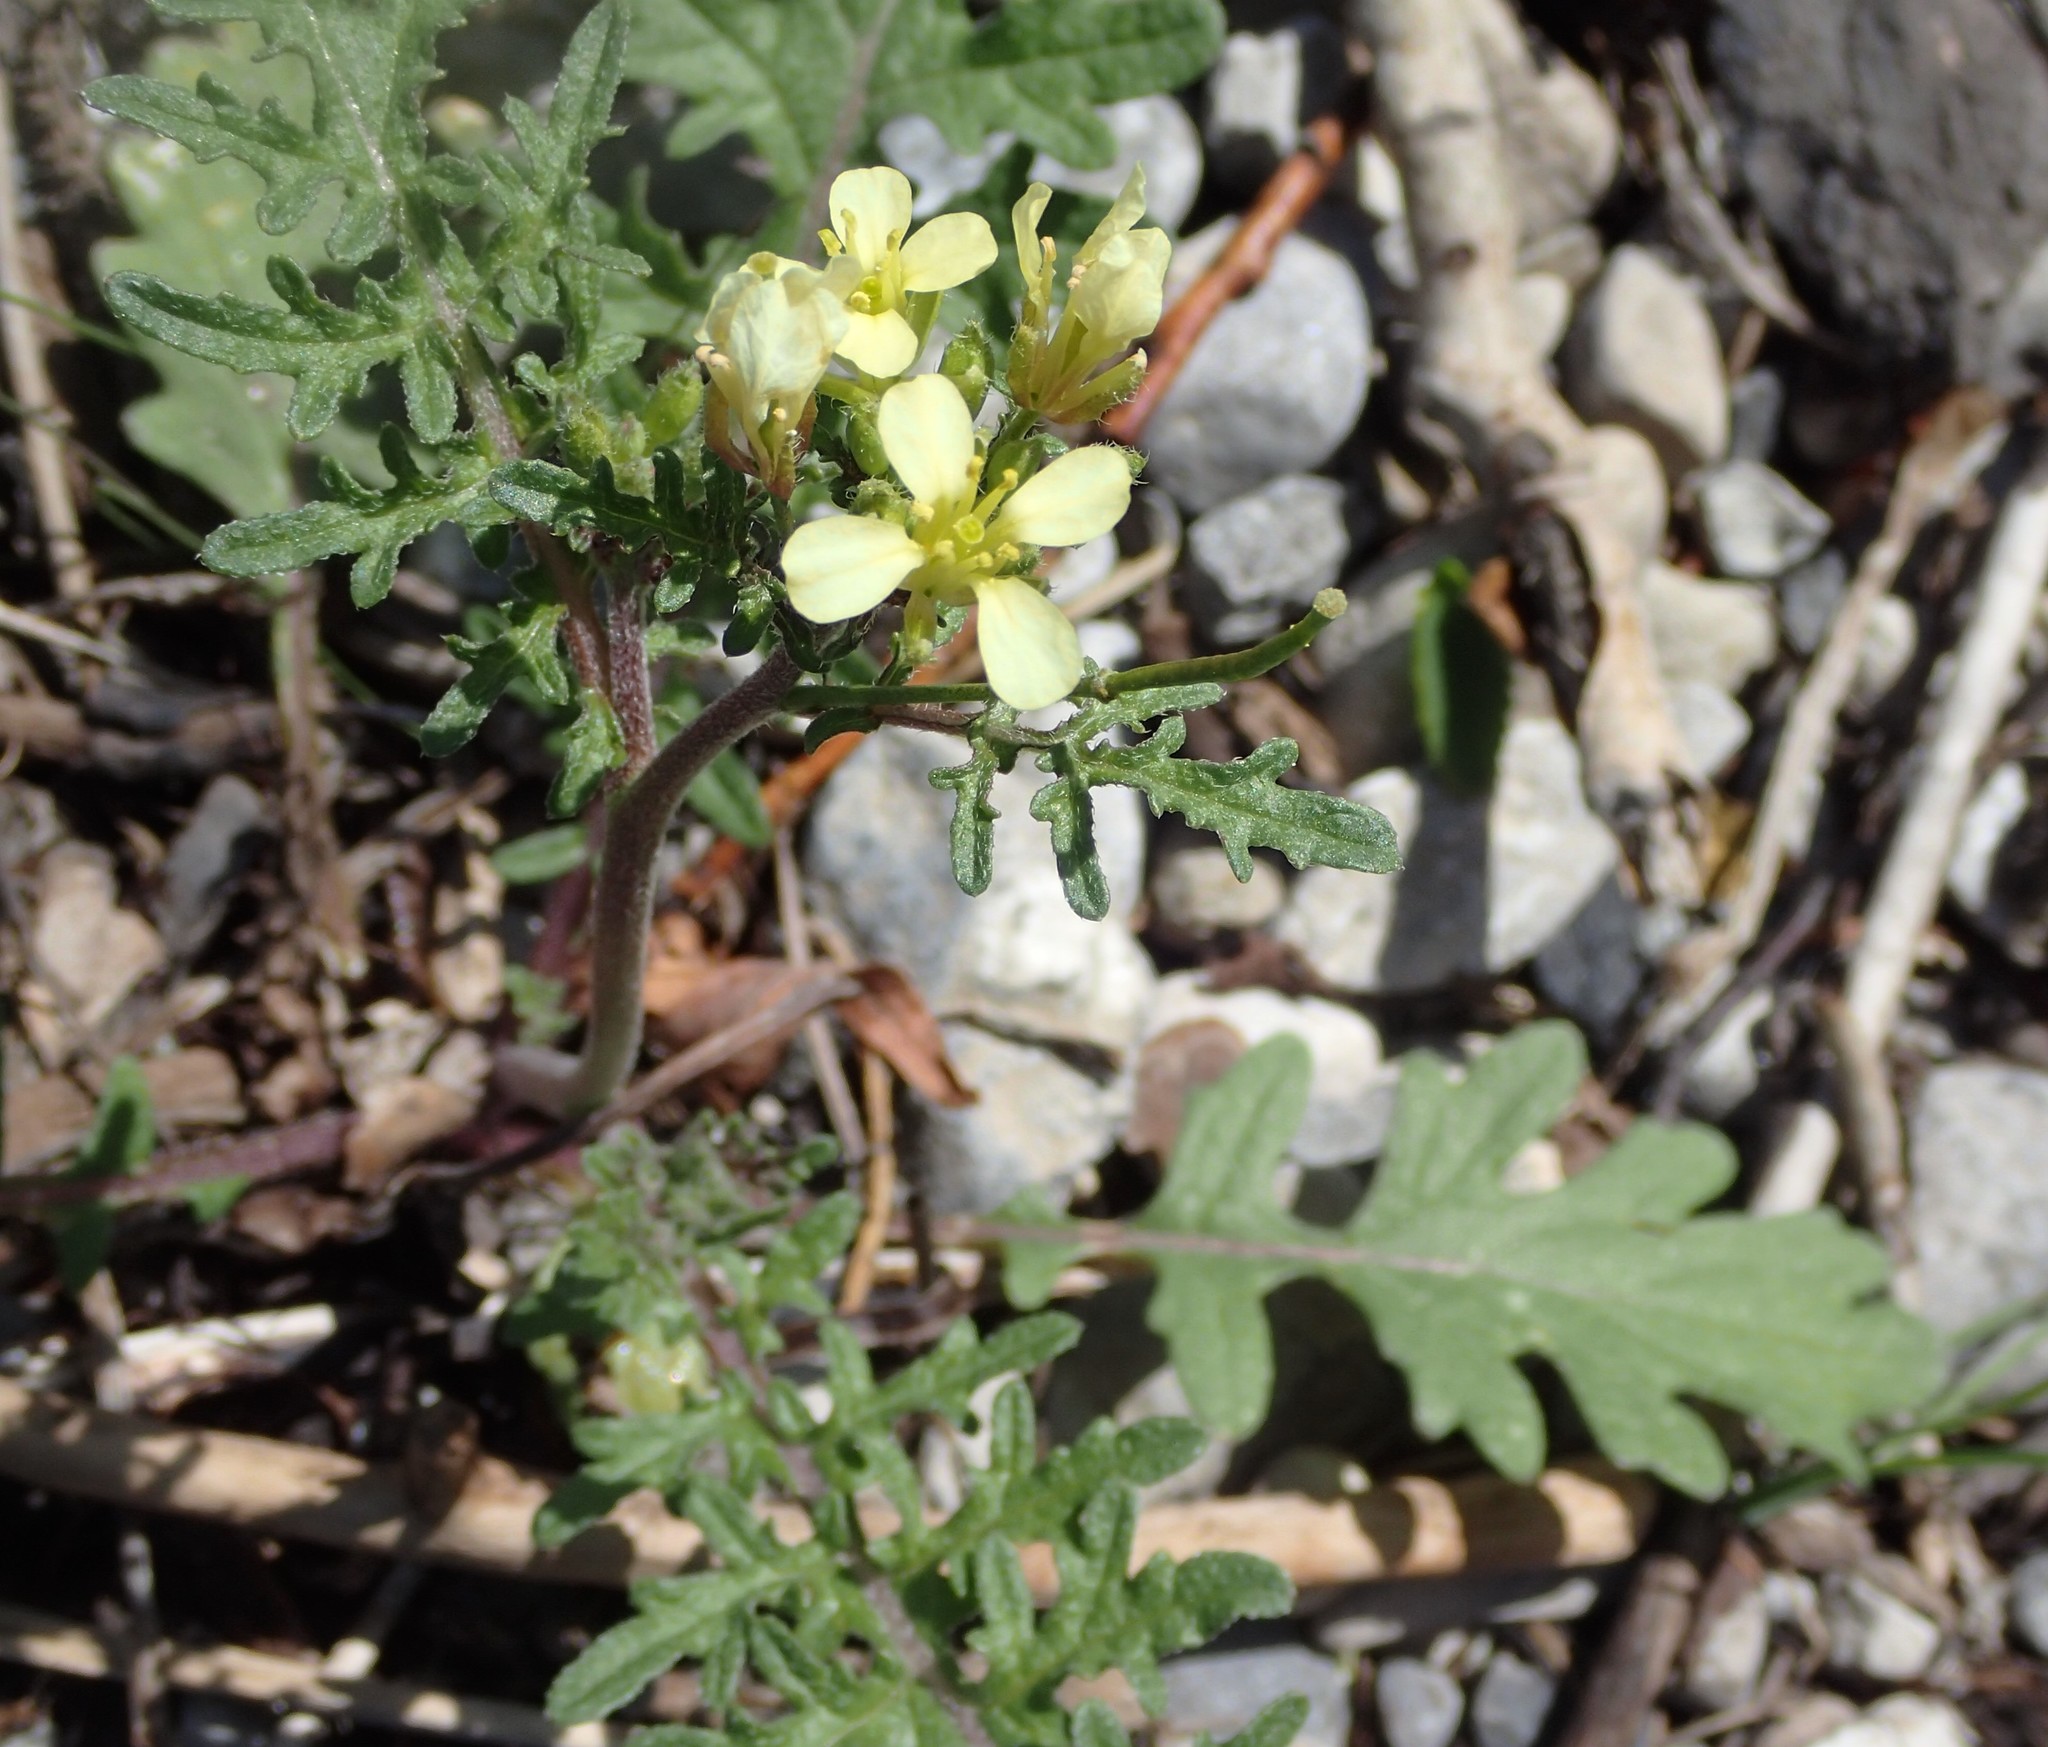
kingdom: Plantae
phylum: Tracheophyta
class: Magnoliopsida
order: Brassicales
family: Brassicaceae
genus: Erucastrum
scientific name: Erucastrum gallicum
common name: Hairy rocket
